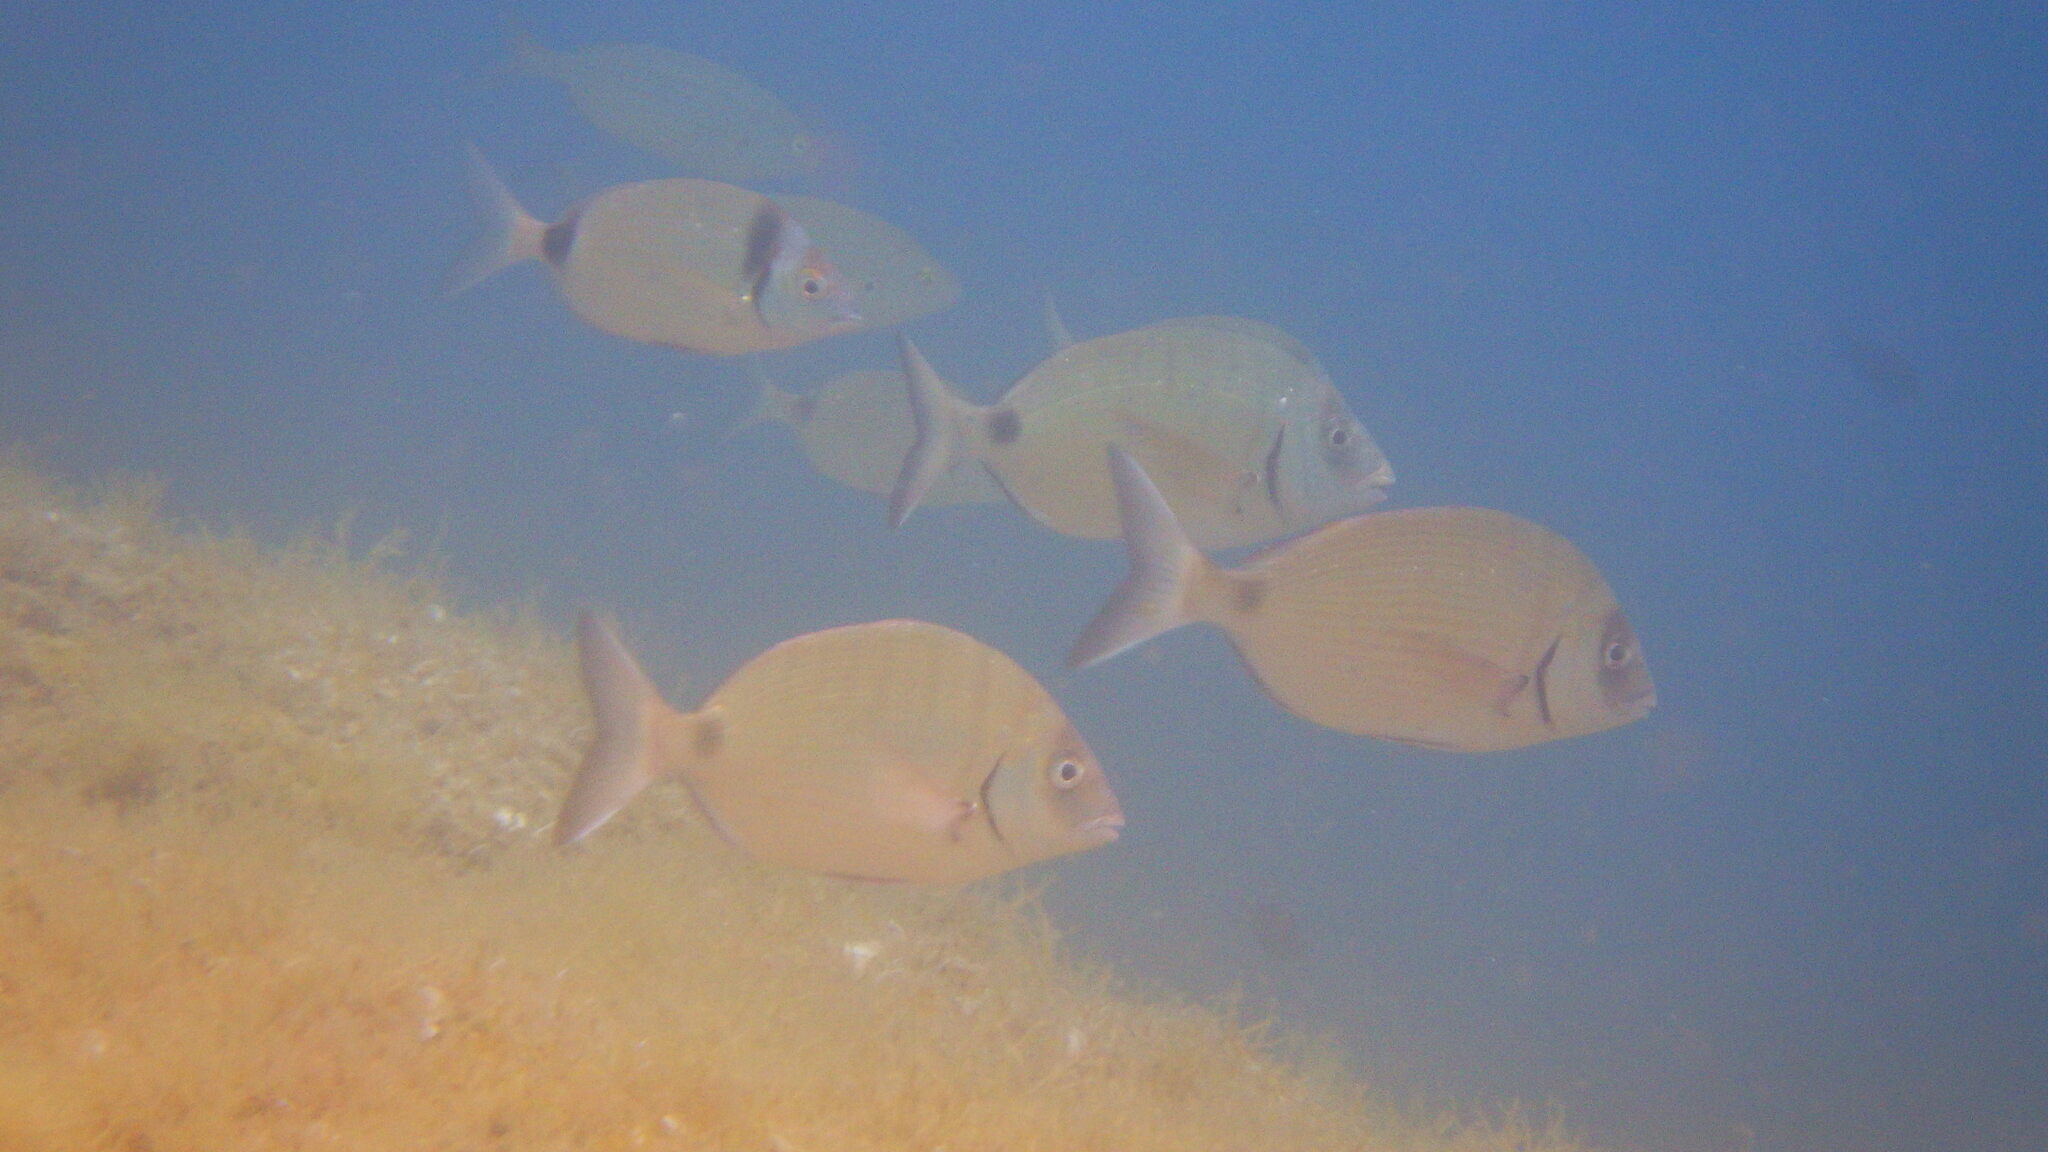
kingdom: Animalia
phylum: Chordata
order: Perciformes
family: Sparidae
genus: Diplodus
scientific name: Diplodus sargus
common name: White seabream
